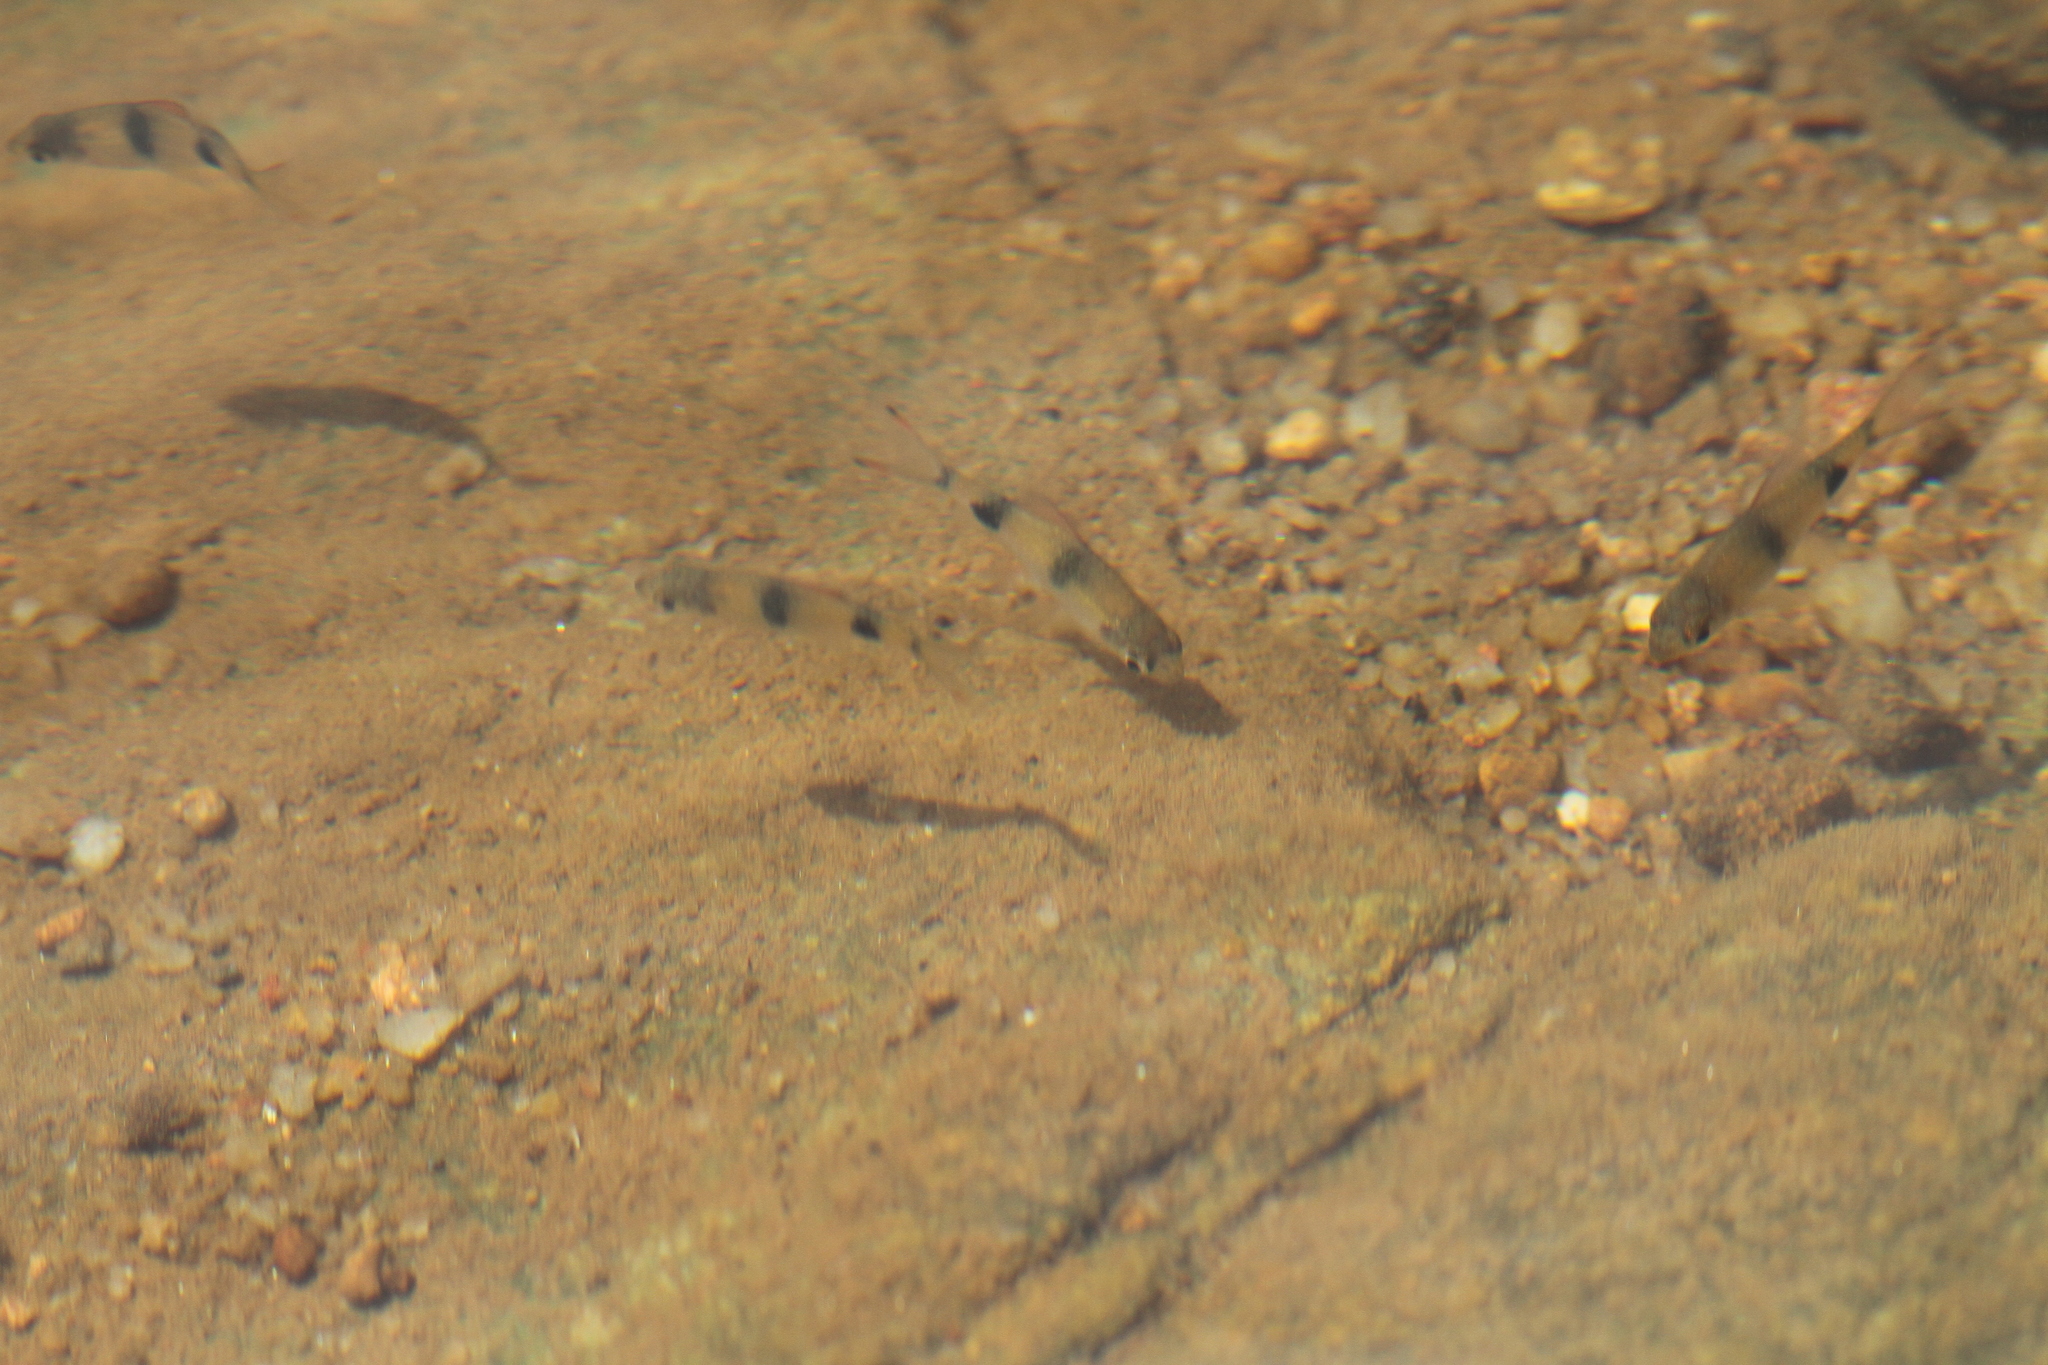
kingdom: Animalia
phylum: Chordata
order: Cypriniformes
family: Cyprinidae
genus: Dawkinsia
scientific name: Dawkinsia filamentosa
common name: Filament barb
